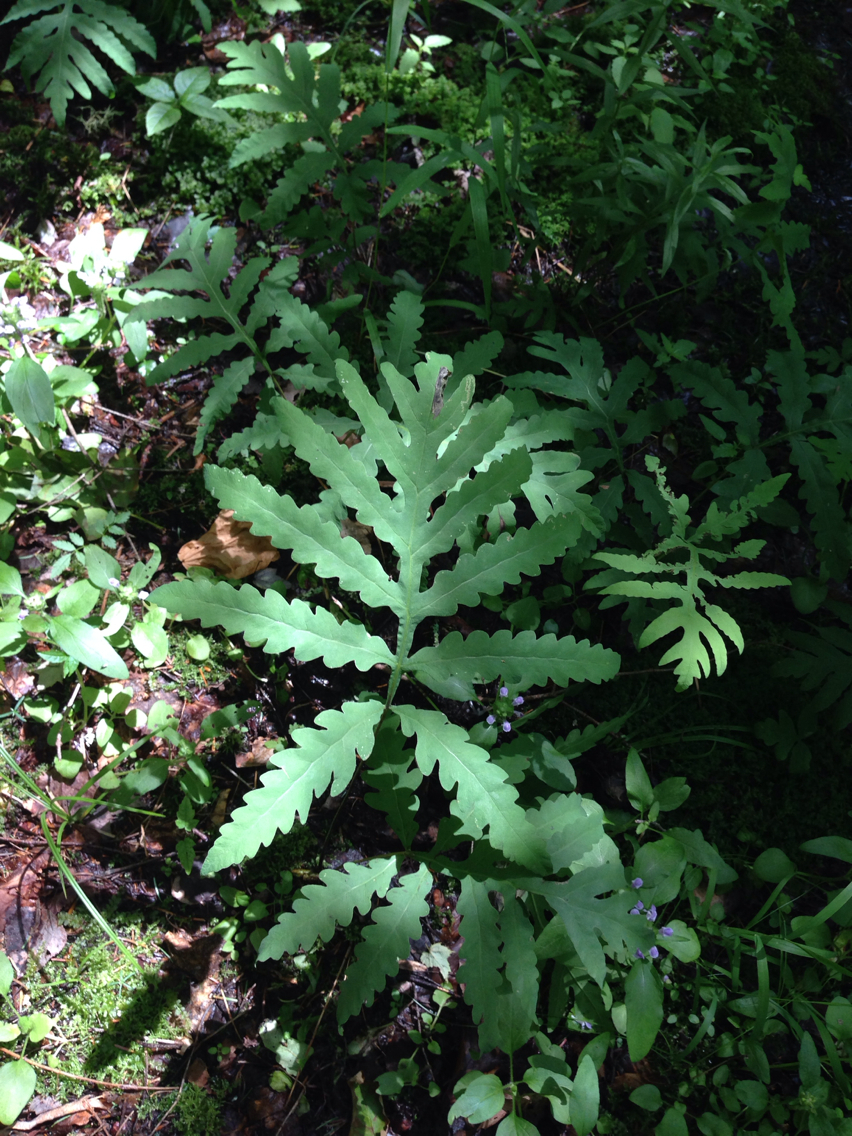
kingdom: Plantae
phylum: Tracheophyta
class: Polypodiopsida
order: Polypodiales
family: Onocleaceae
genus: Onoclea
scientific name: Onoclea sensibilis
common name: Sensitive fern
